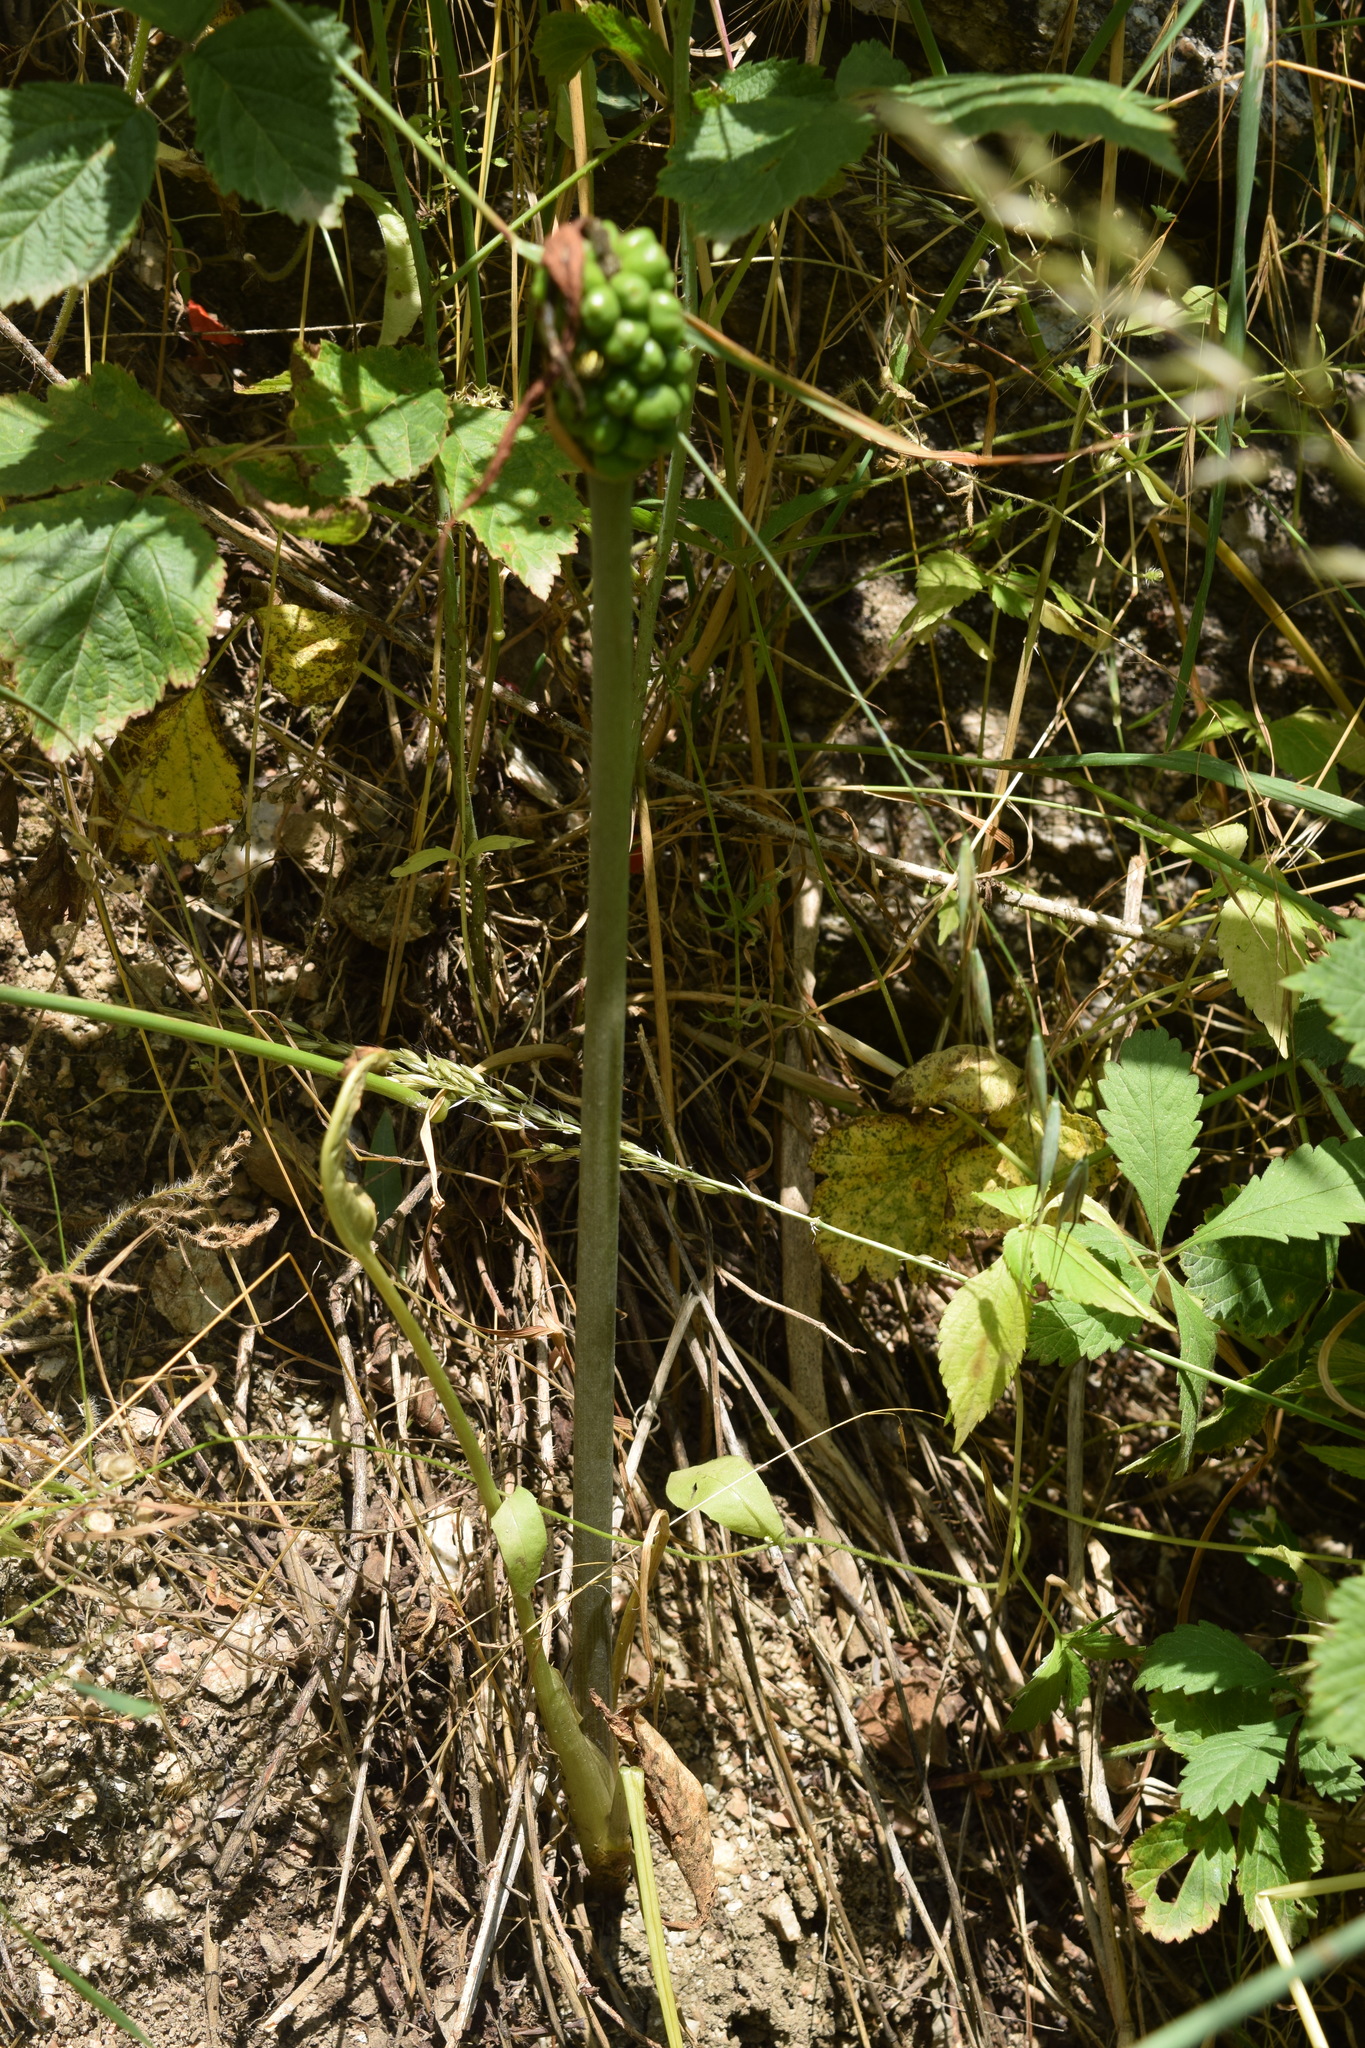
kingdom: Plantae
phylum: Tracheophyta
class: Liliopsida
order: Alismatales
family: Araceae
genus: Arum
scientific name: Arum korolkowii
